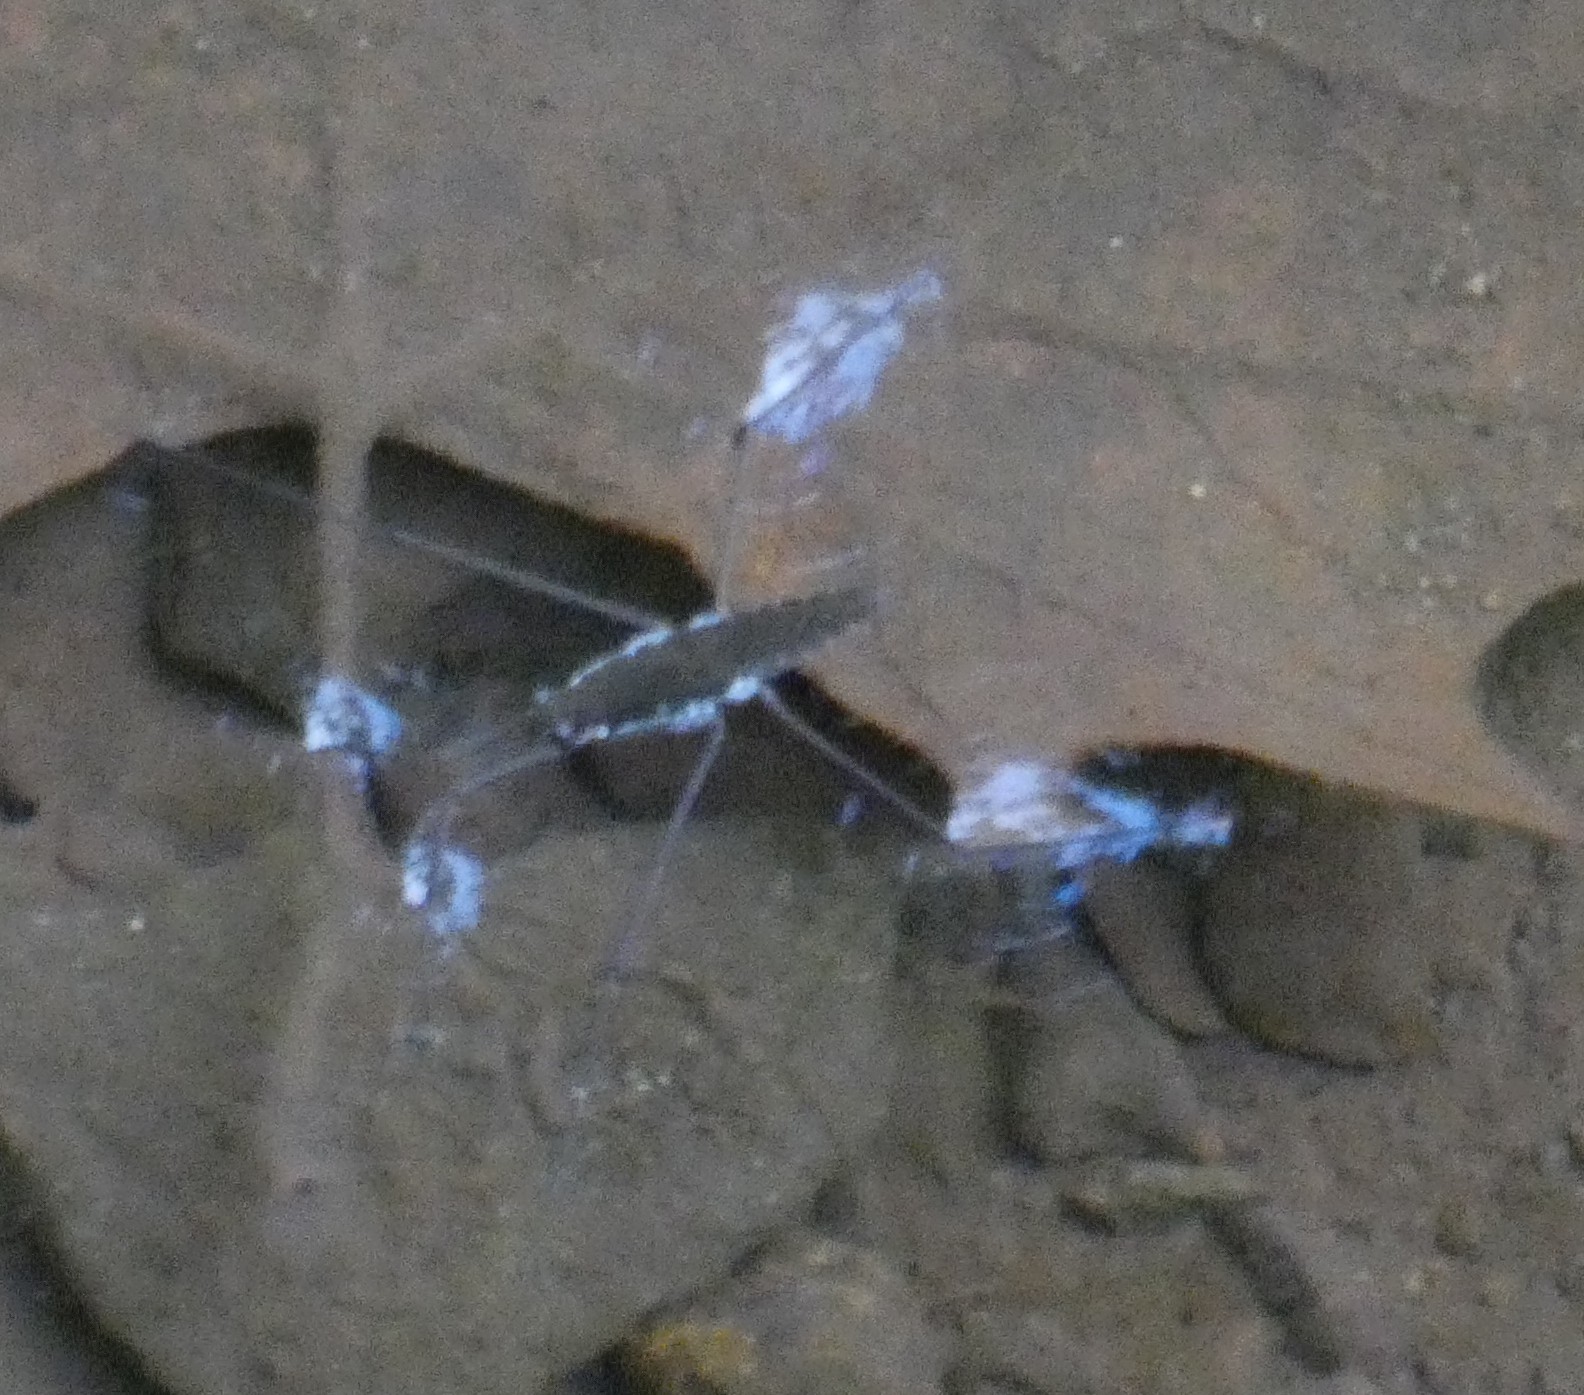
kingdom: Animalia
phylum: Arthropoda
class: Insecta
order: Hemiptera
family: Gerridae
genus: Aquarius
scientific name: Aquarius
